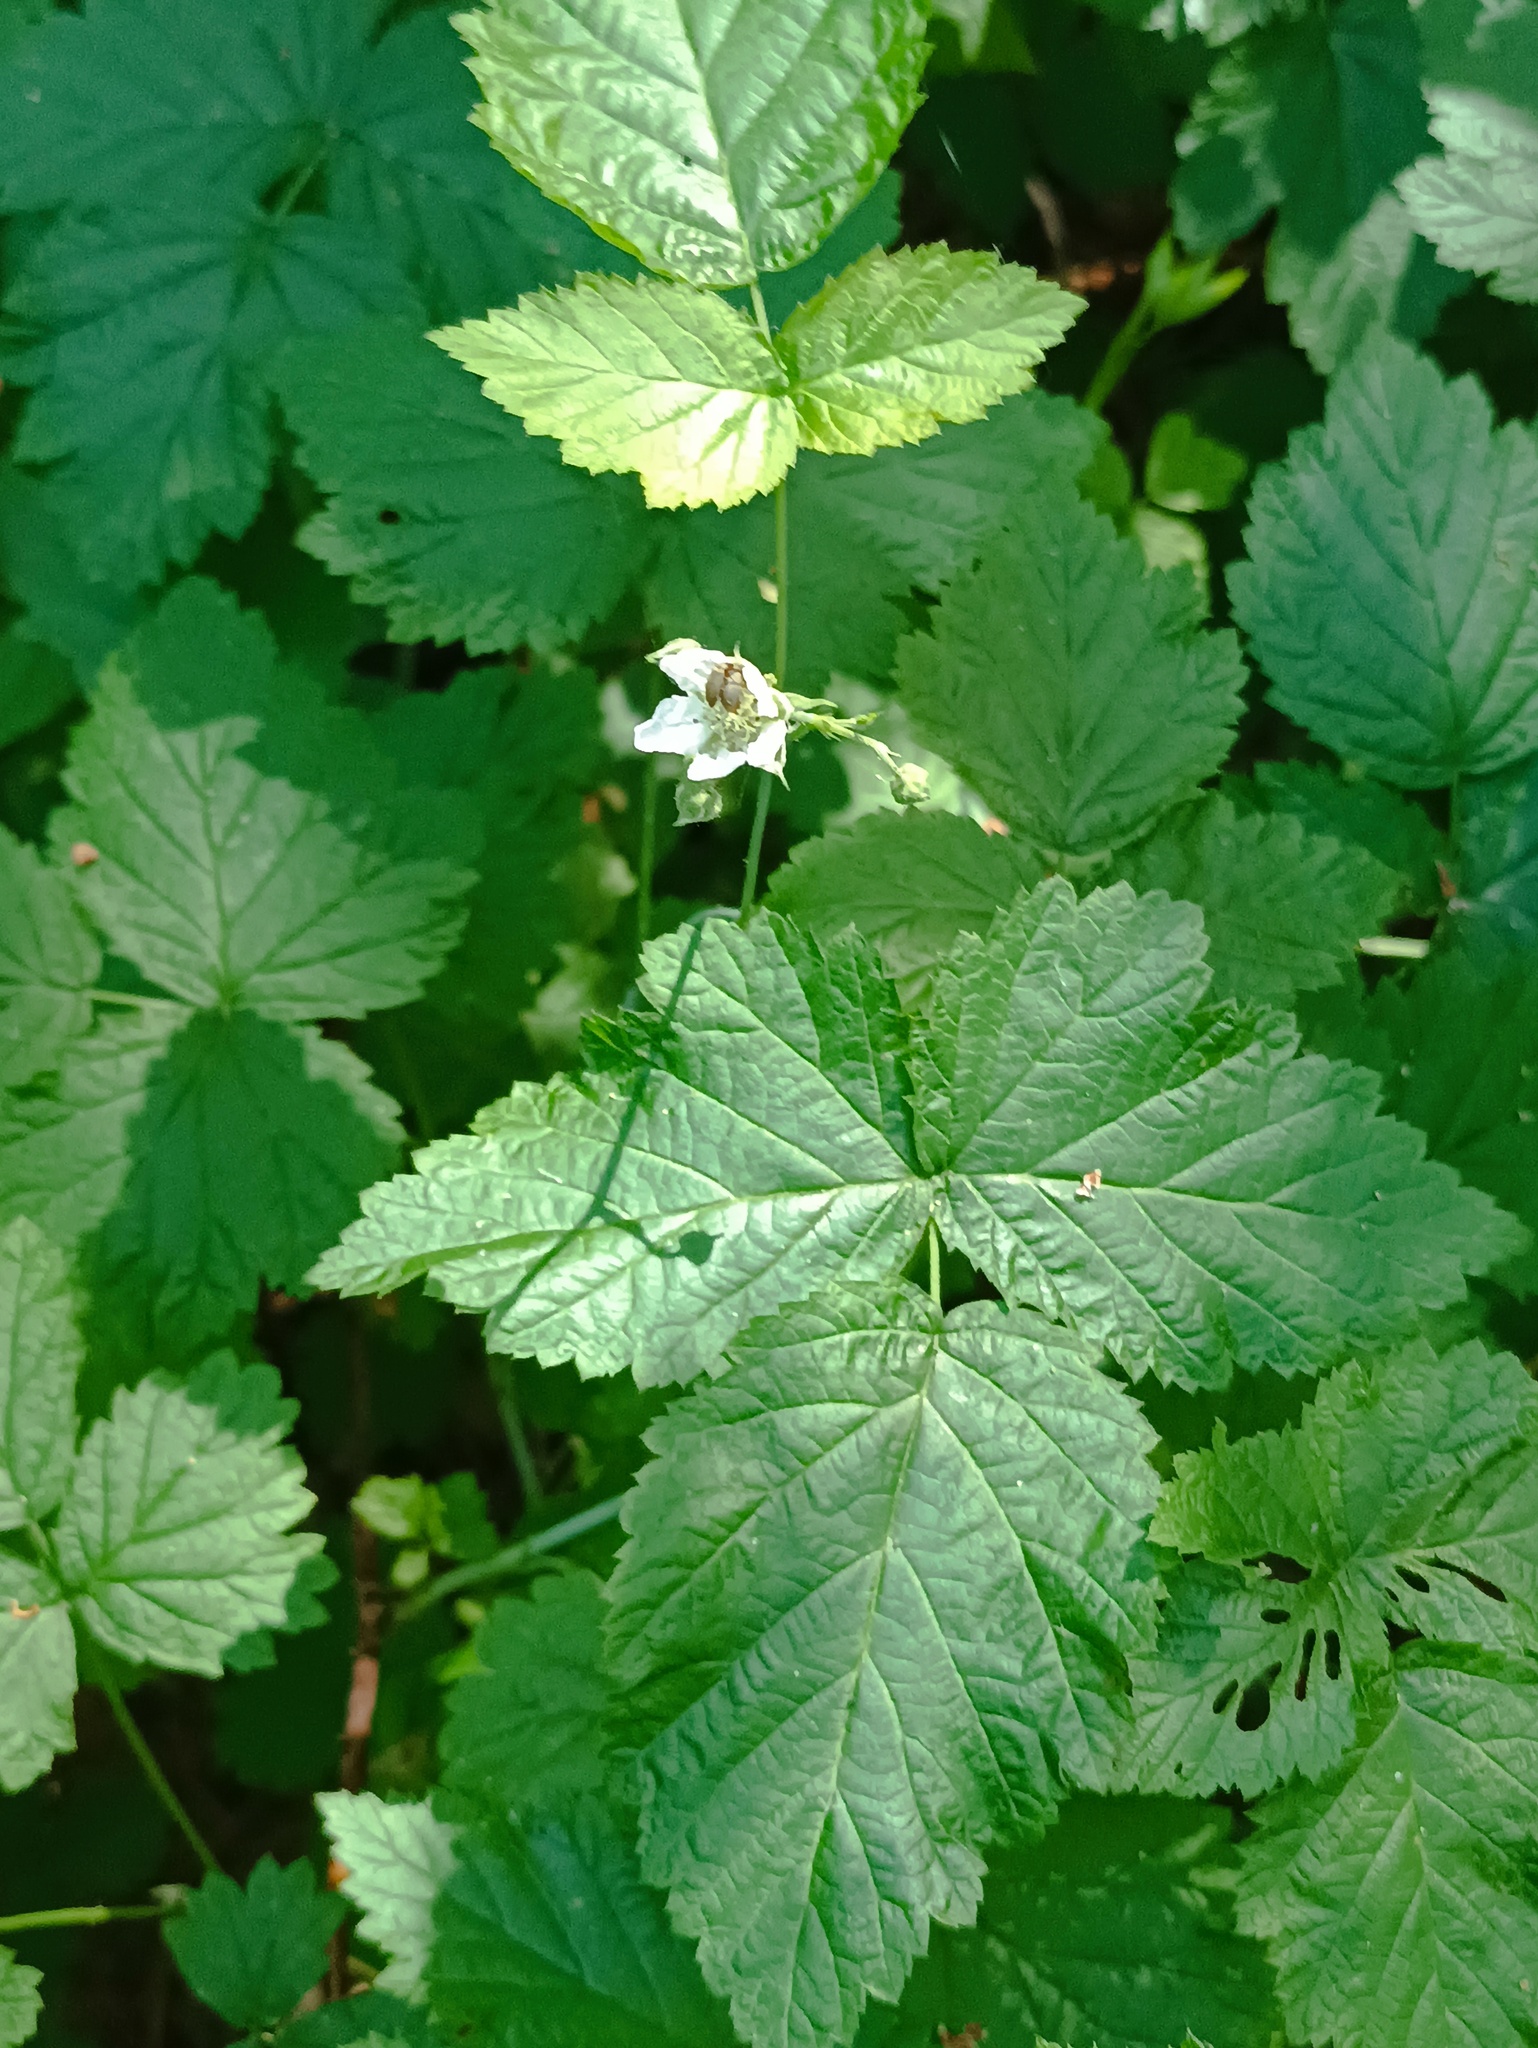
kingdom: Plantae
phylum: Tracheophyta
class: Magnoliopsida
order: Rosales
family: Rosaceae
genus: Rubus
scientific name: Rubus caesius
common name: Dewberry
